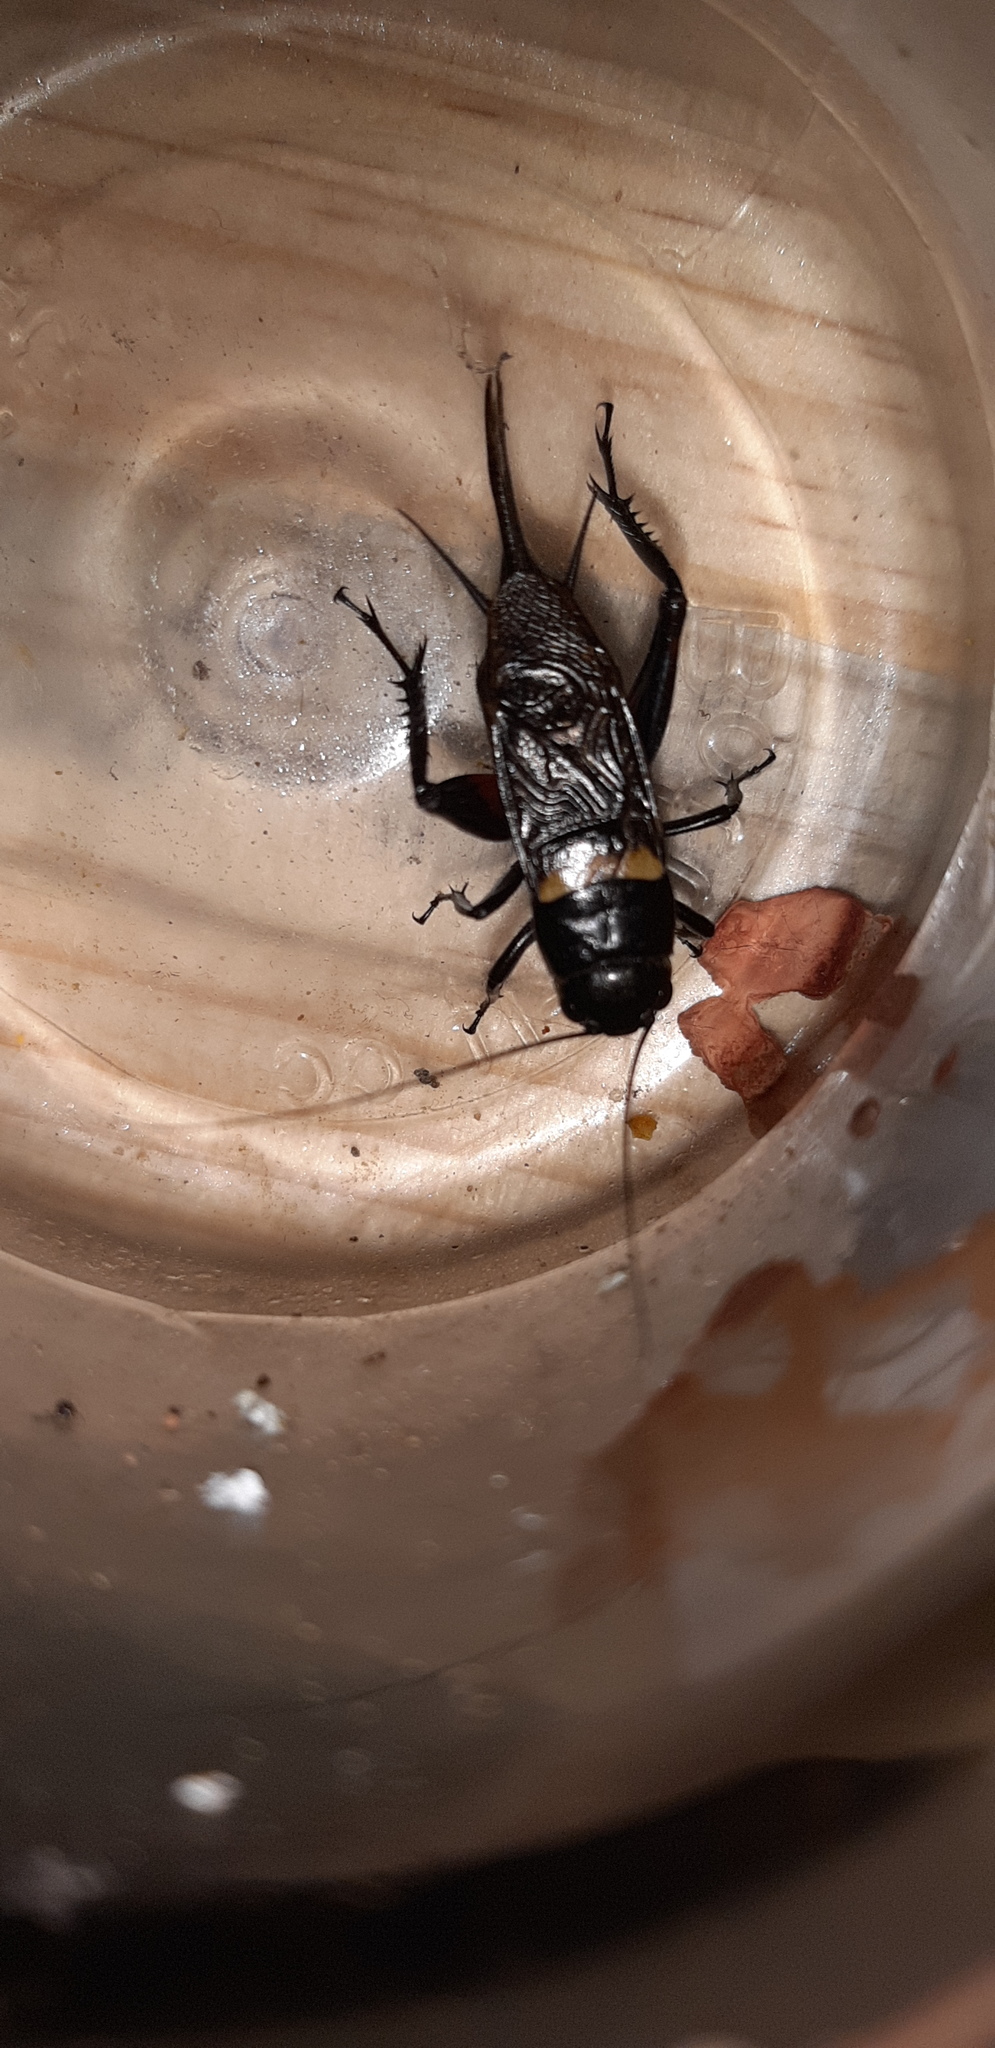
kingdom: Animalia
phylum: Arthropoda
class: Insecta
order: Orthoptera
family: Gryllidae
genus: Gryllus
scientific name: Gryllus bimaculatus
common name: Two-spotted cricket
